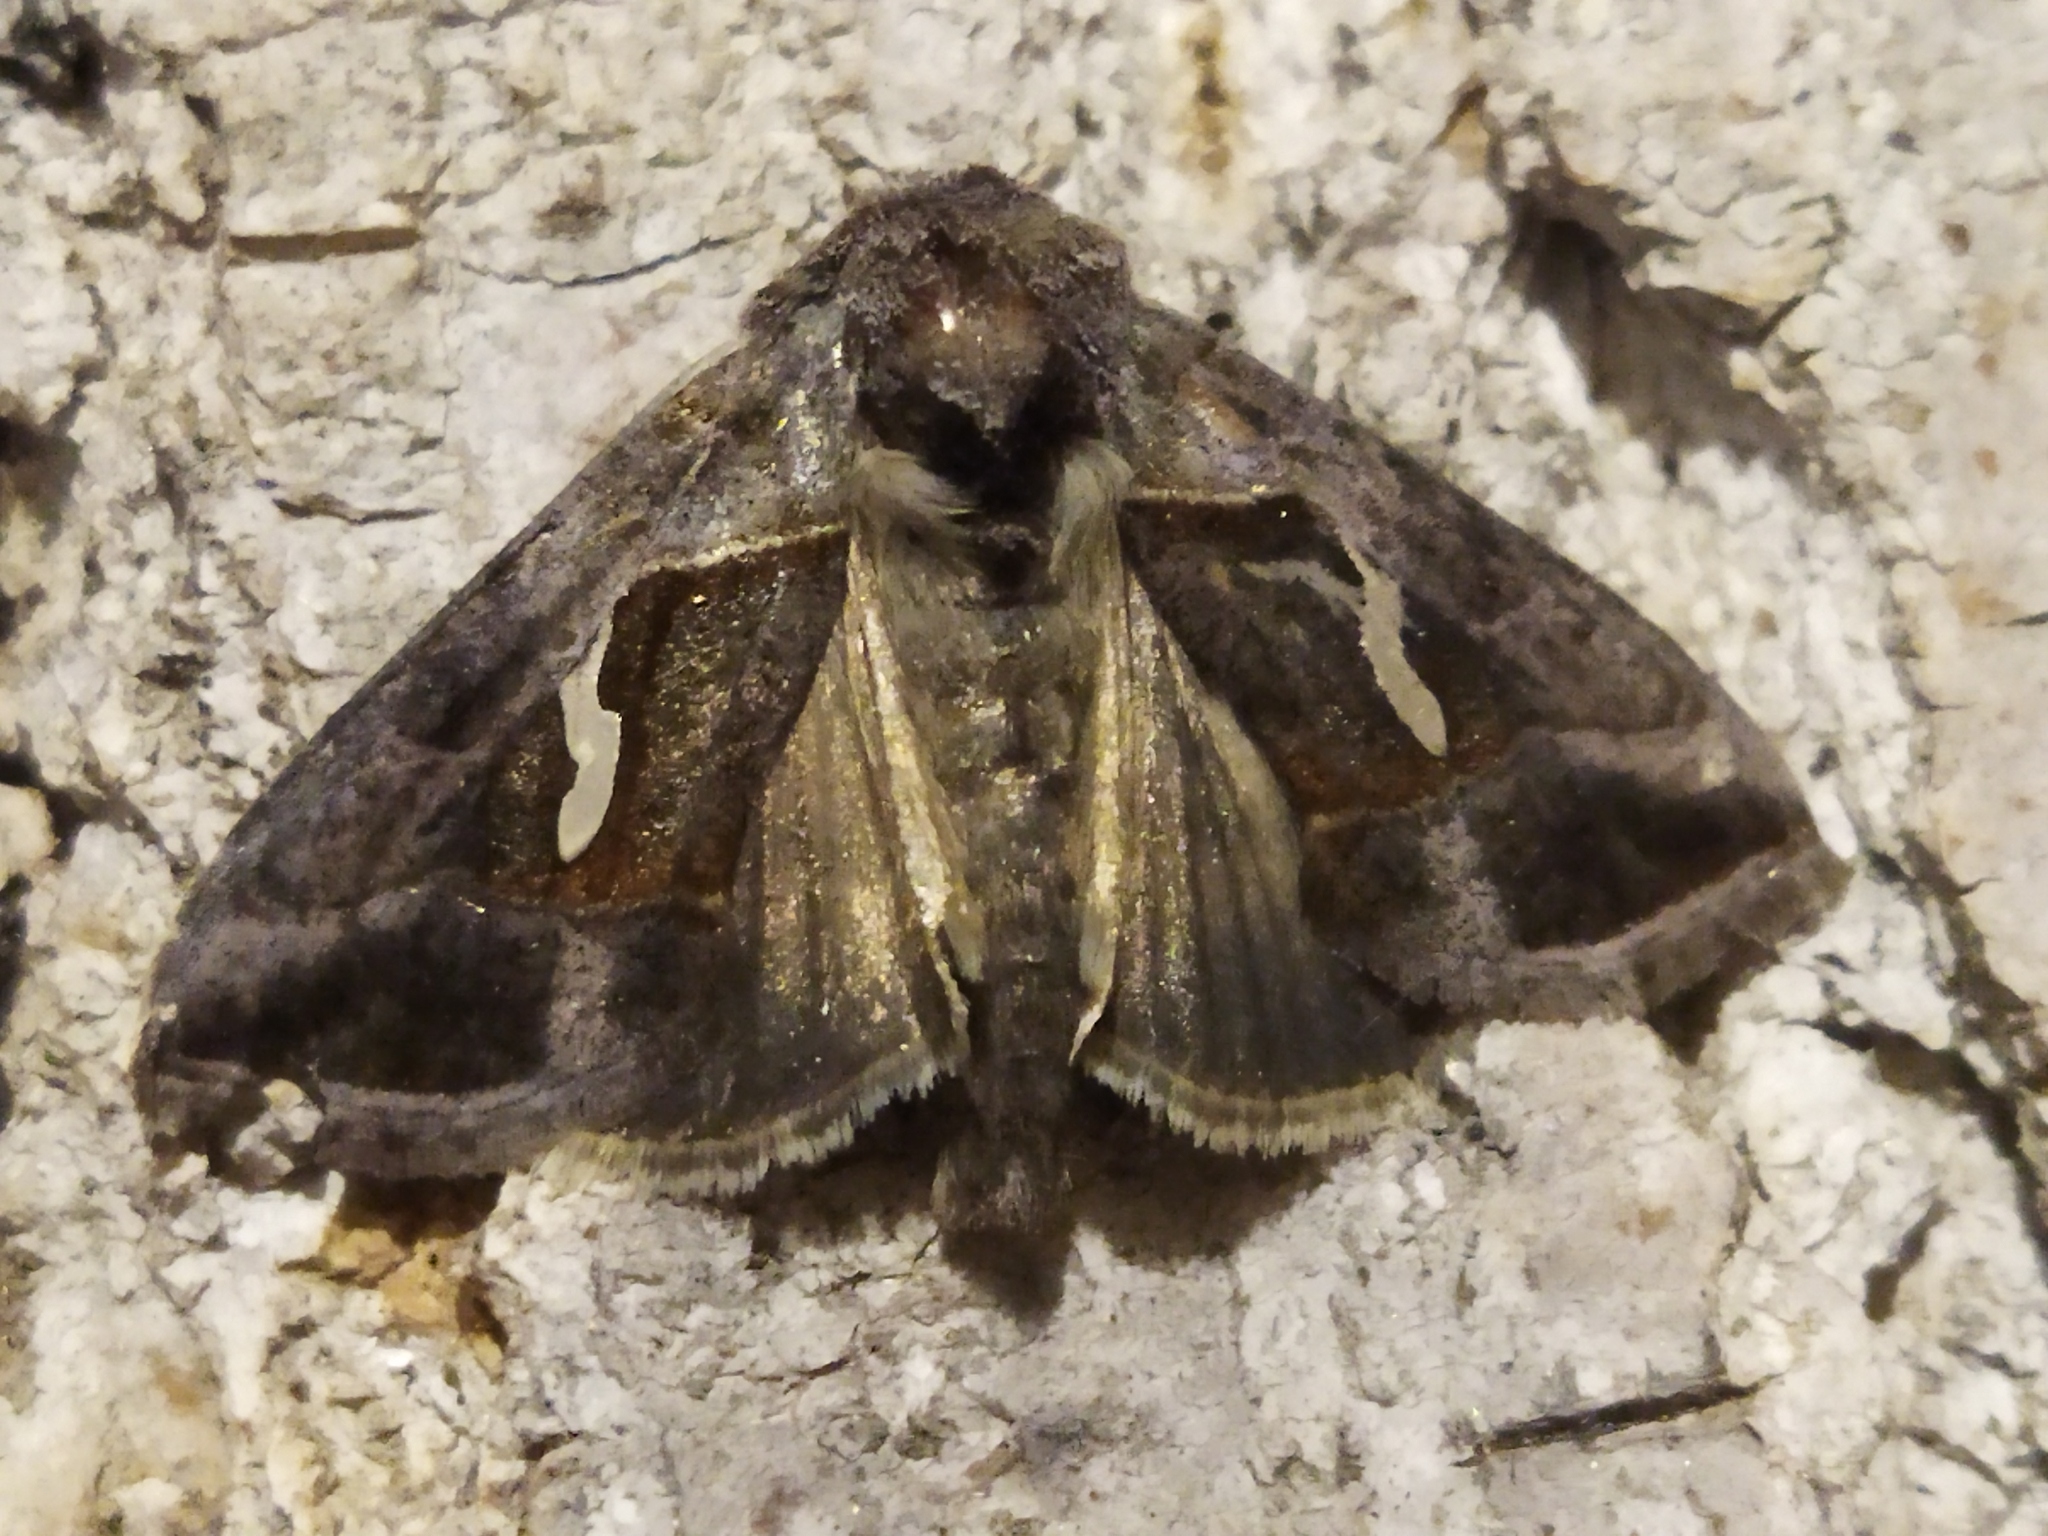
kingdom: Animalia
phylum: Arthropoda
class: Insecta
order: Lepidoptera
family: Noctuidae
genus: Macdunnoughia
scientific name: Macdunnoughia confusa
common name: Dewick's plusia
